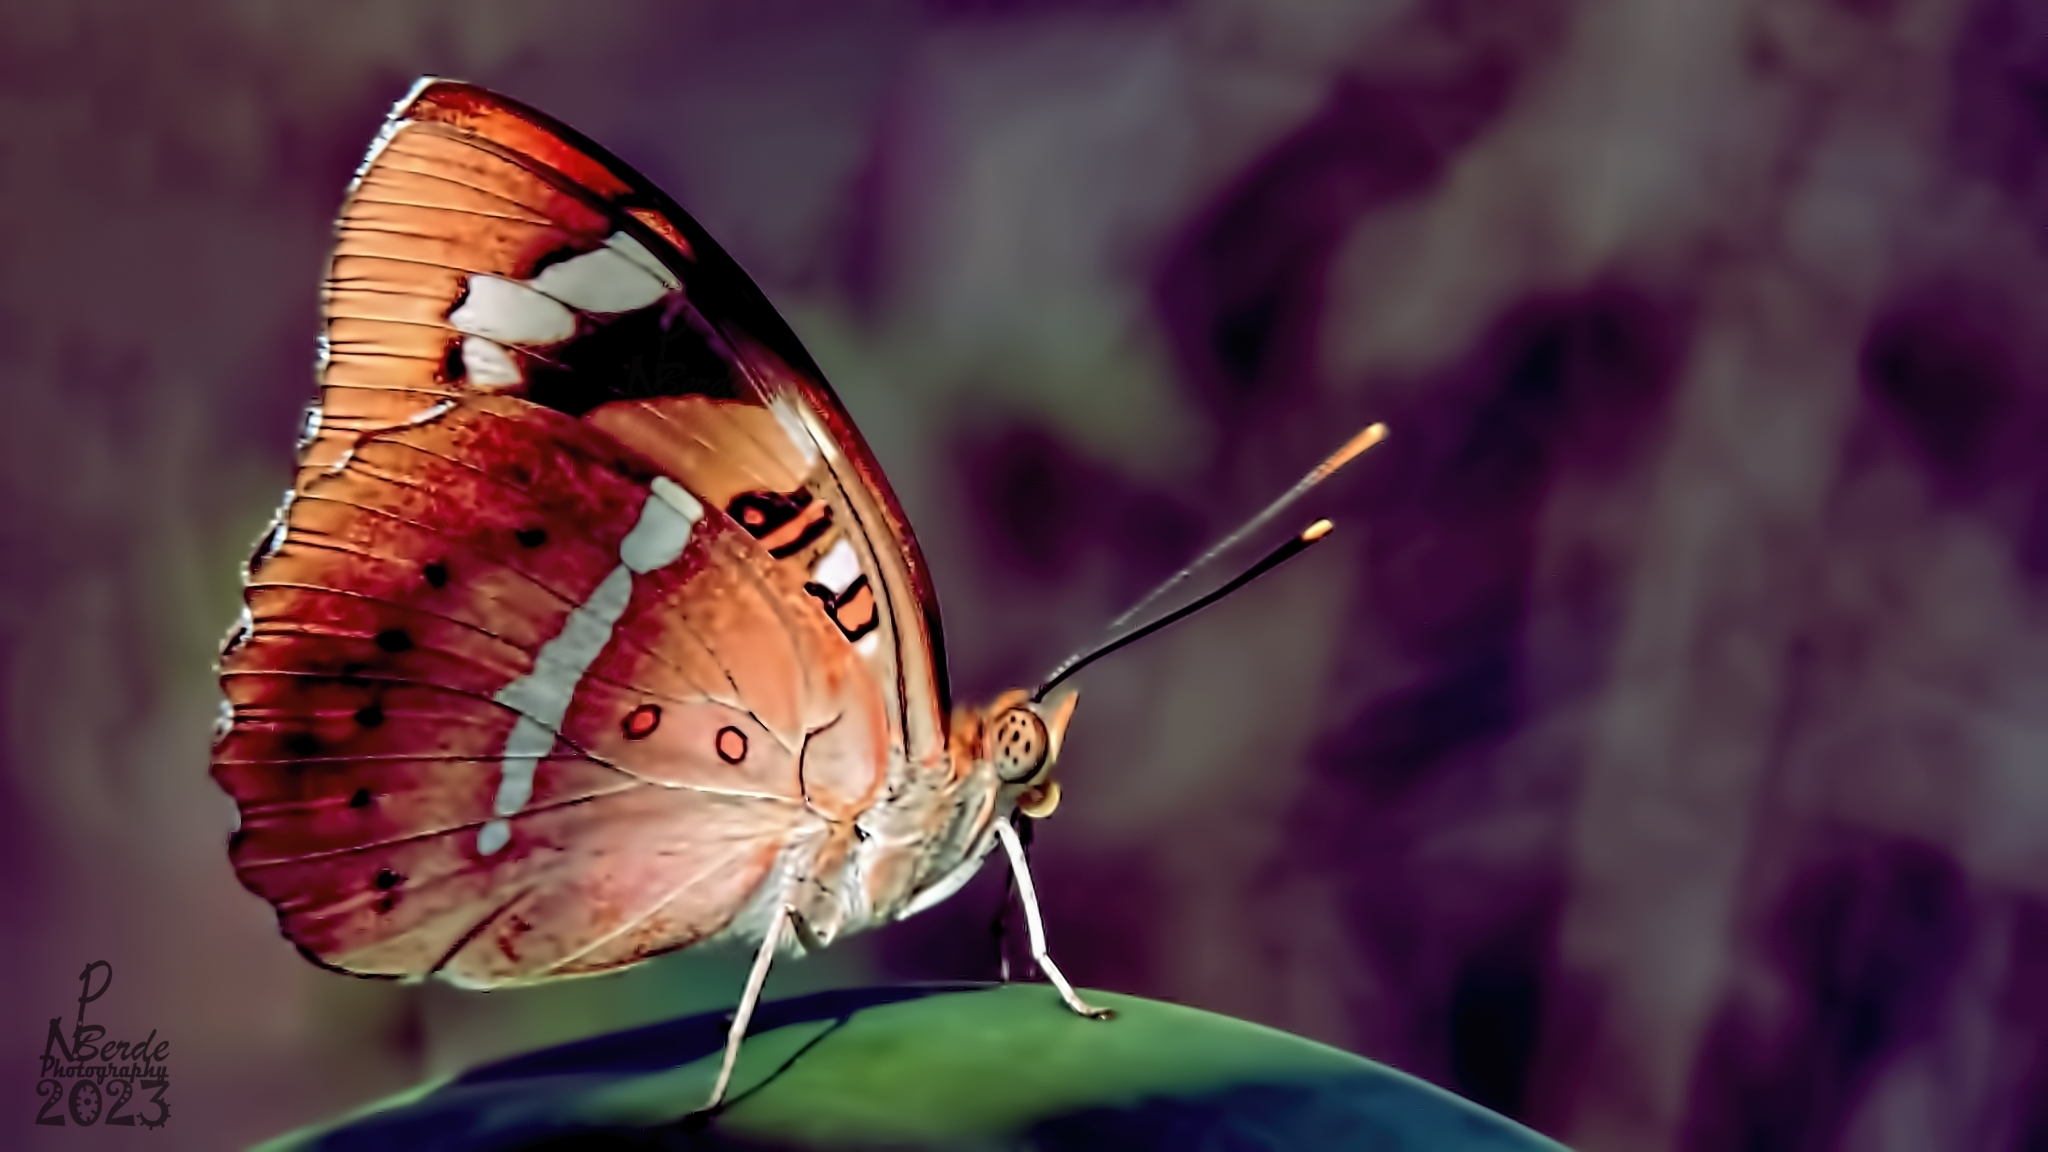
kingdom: Animalia
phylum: Arthropoda
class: Insecta
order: Lepidoptera
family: Nymphalidae
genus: Euthalia
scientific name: Euthalia nais
